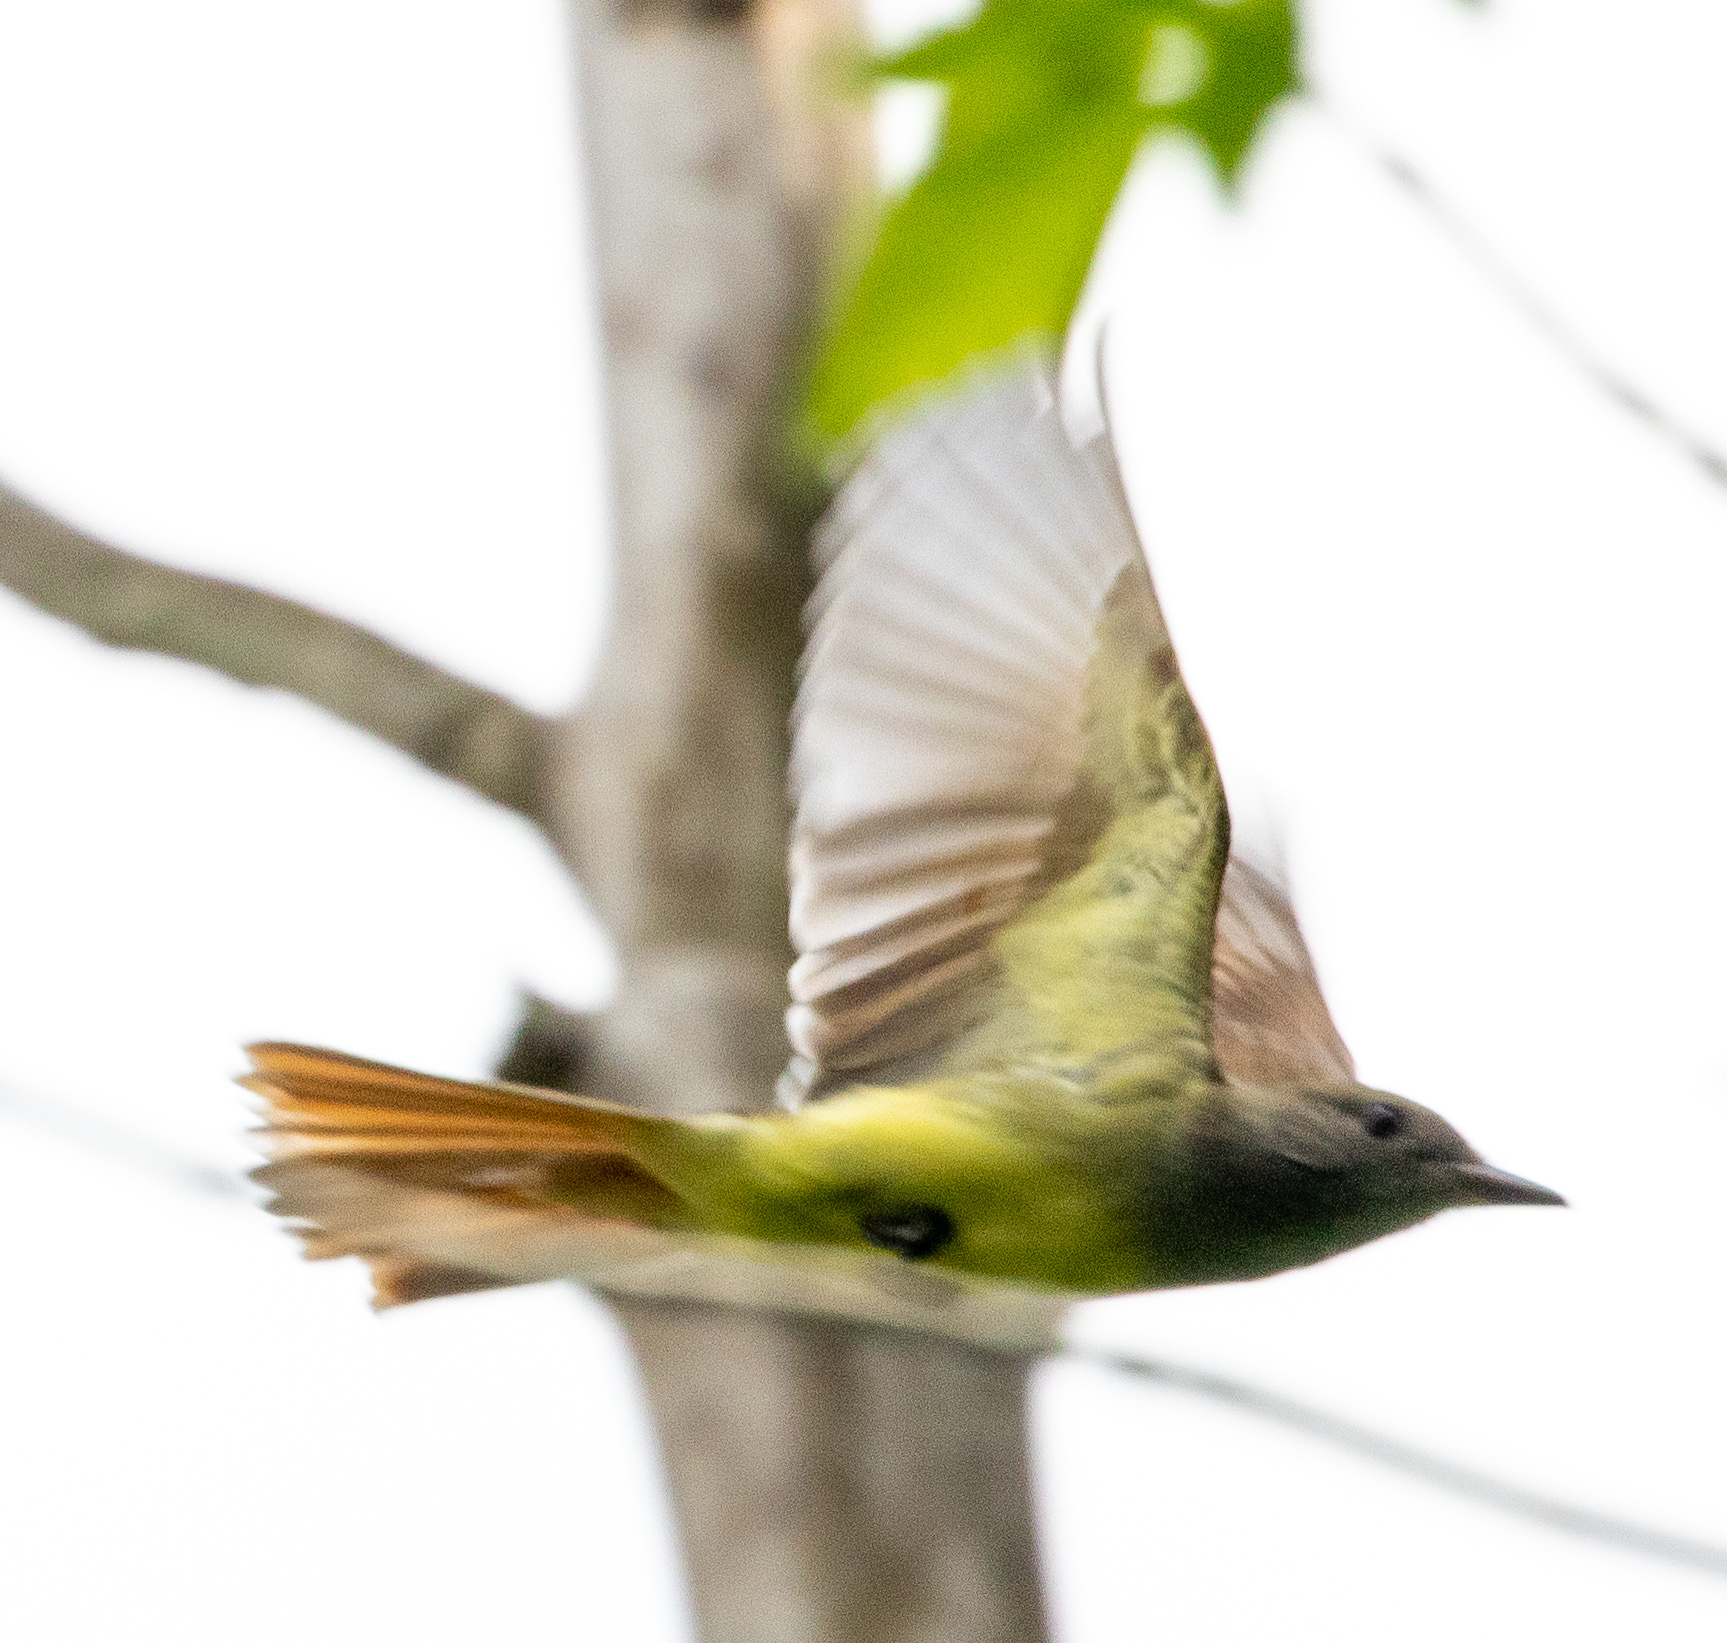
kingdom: Animalia
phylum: Chordata
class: Aves
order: Passeriformes
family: Tyrannidae
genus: Myiarchus
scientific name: Myiarchus crinitus
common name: Great crested flycatcher
